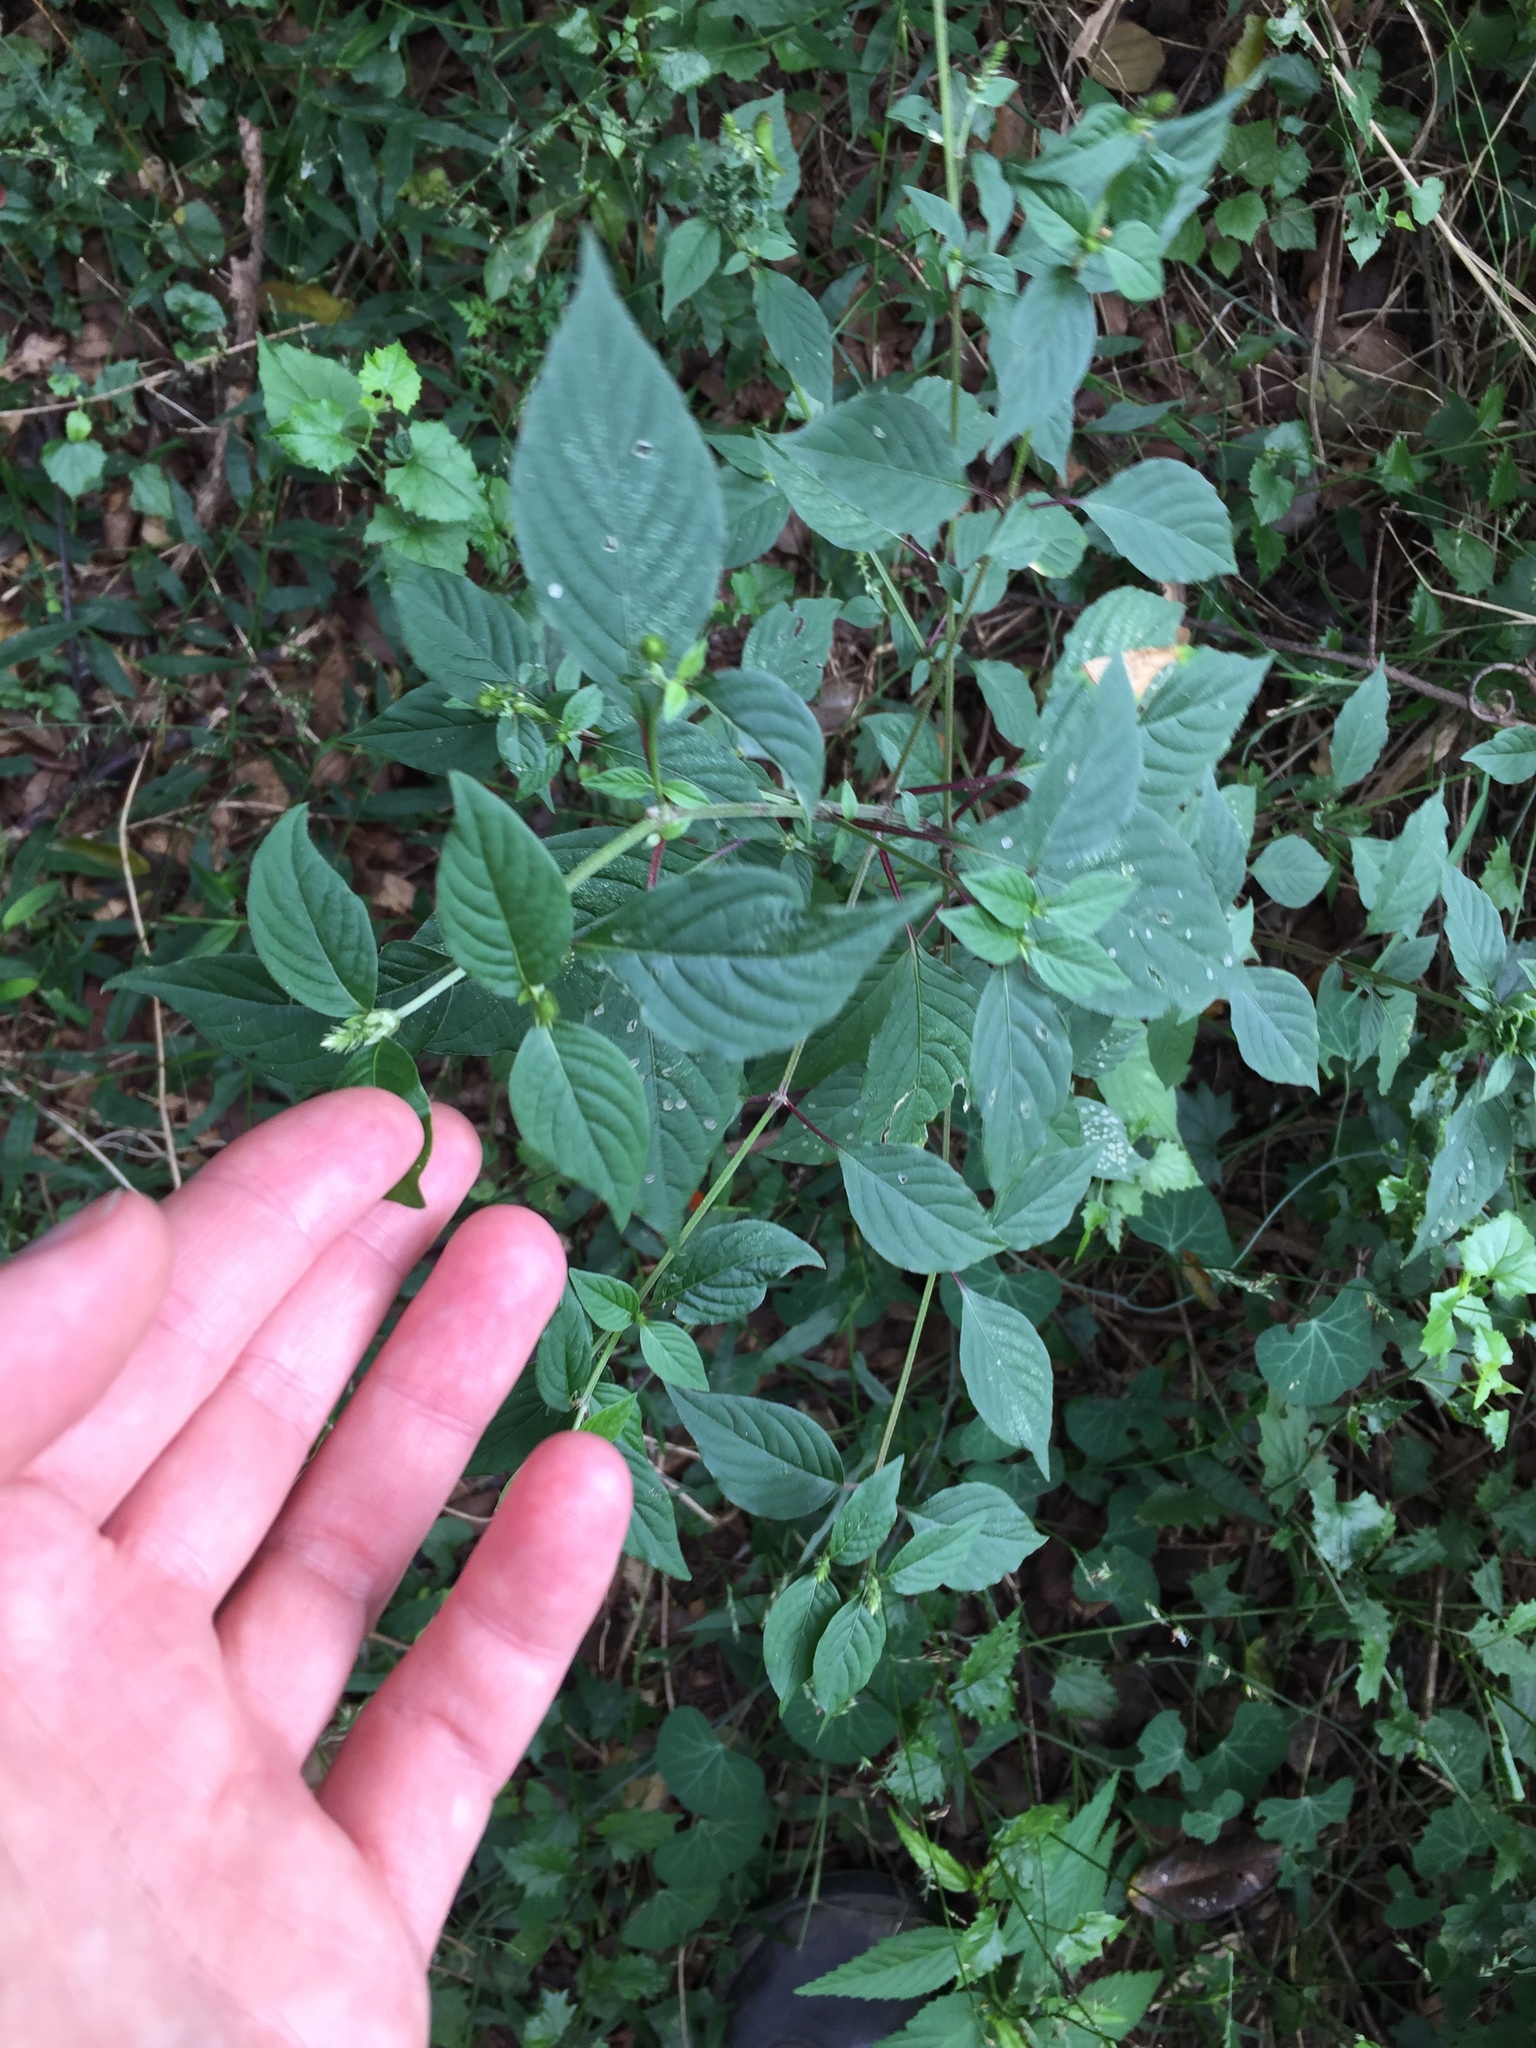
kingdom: Plantae
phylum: Tracheophyta
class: Magnoliopsida
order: Caryophyllales
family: Amaranthaceae
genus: Achyranthes
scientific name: Achyranthes aspera
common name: Devil's horsewhip
